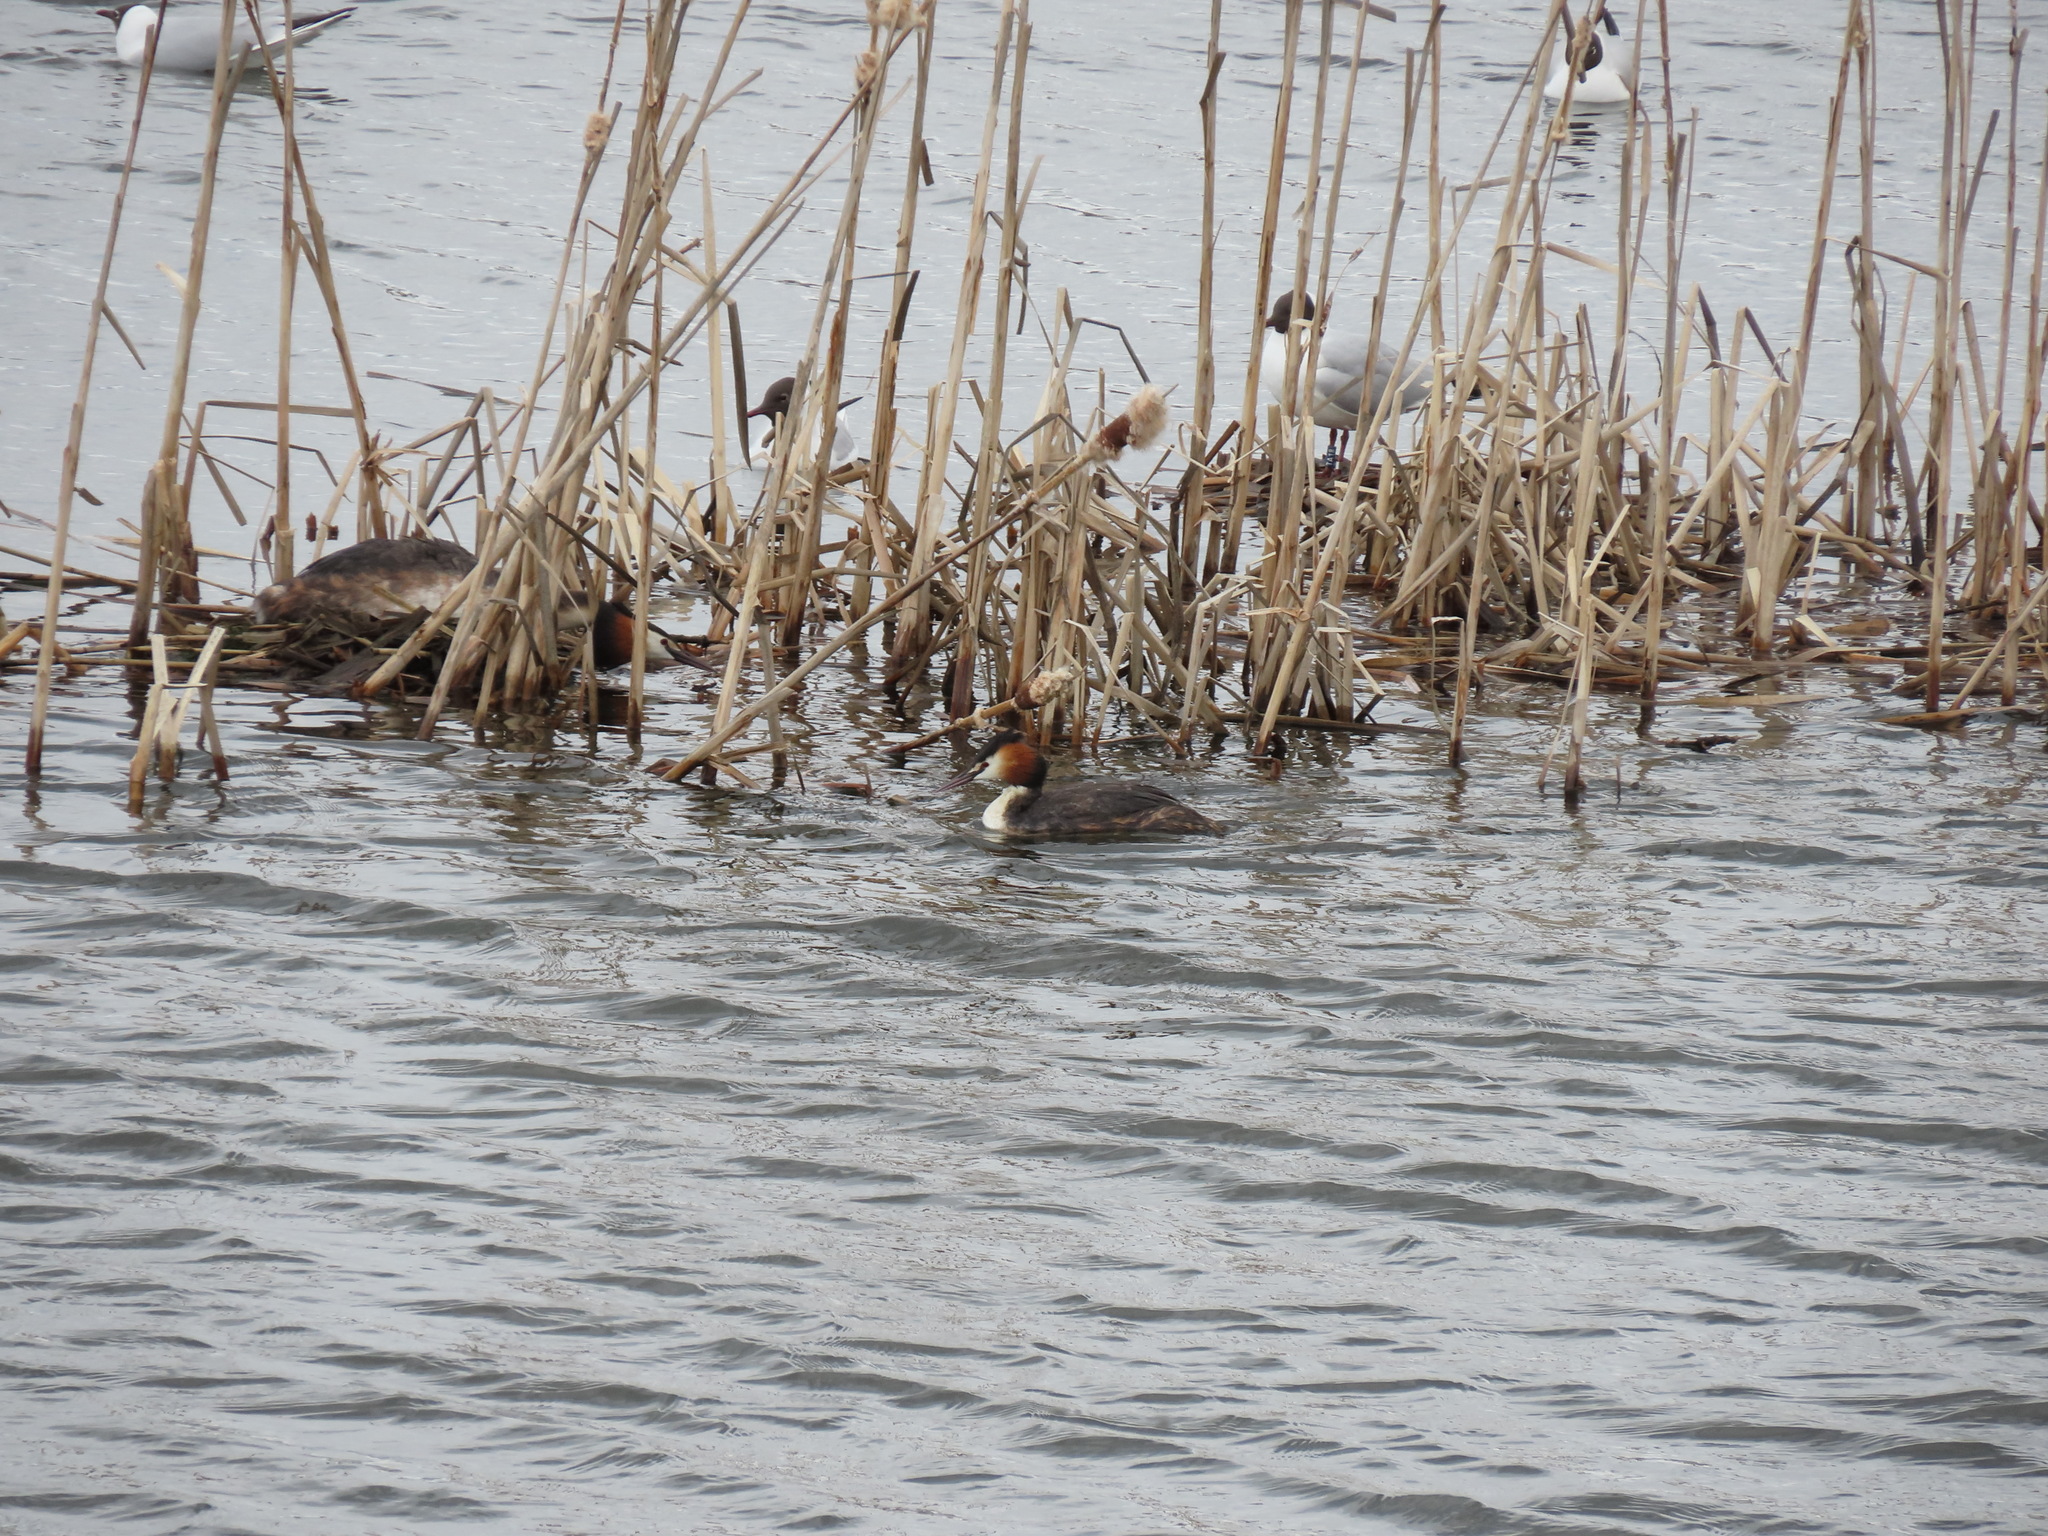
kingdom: Animalia
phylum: Chordata
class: Aves
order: Podicipediformes
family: Podicipedidae
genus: Podiceps
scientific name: Podiceps cristatus
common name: Great crested grebe
